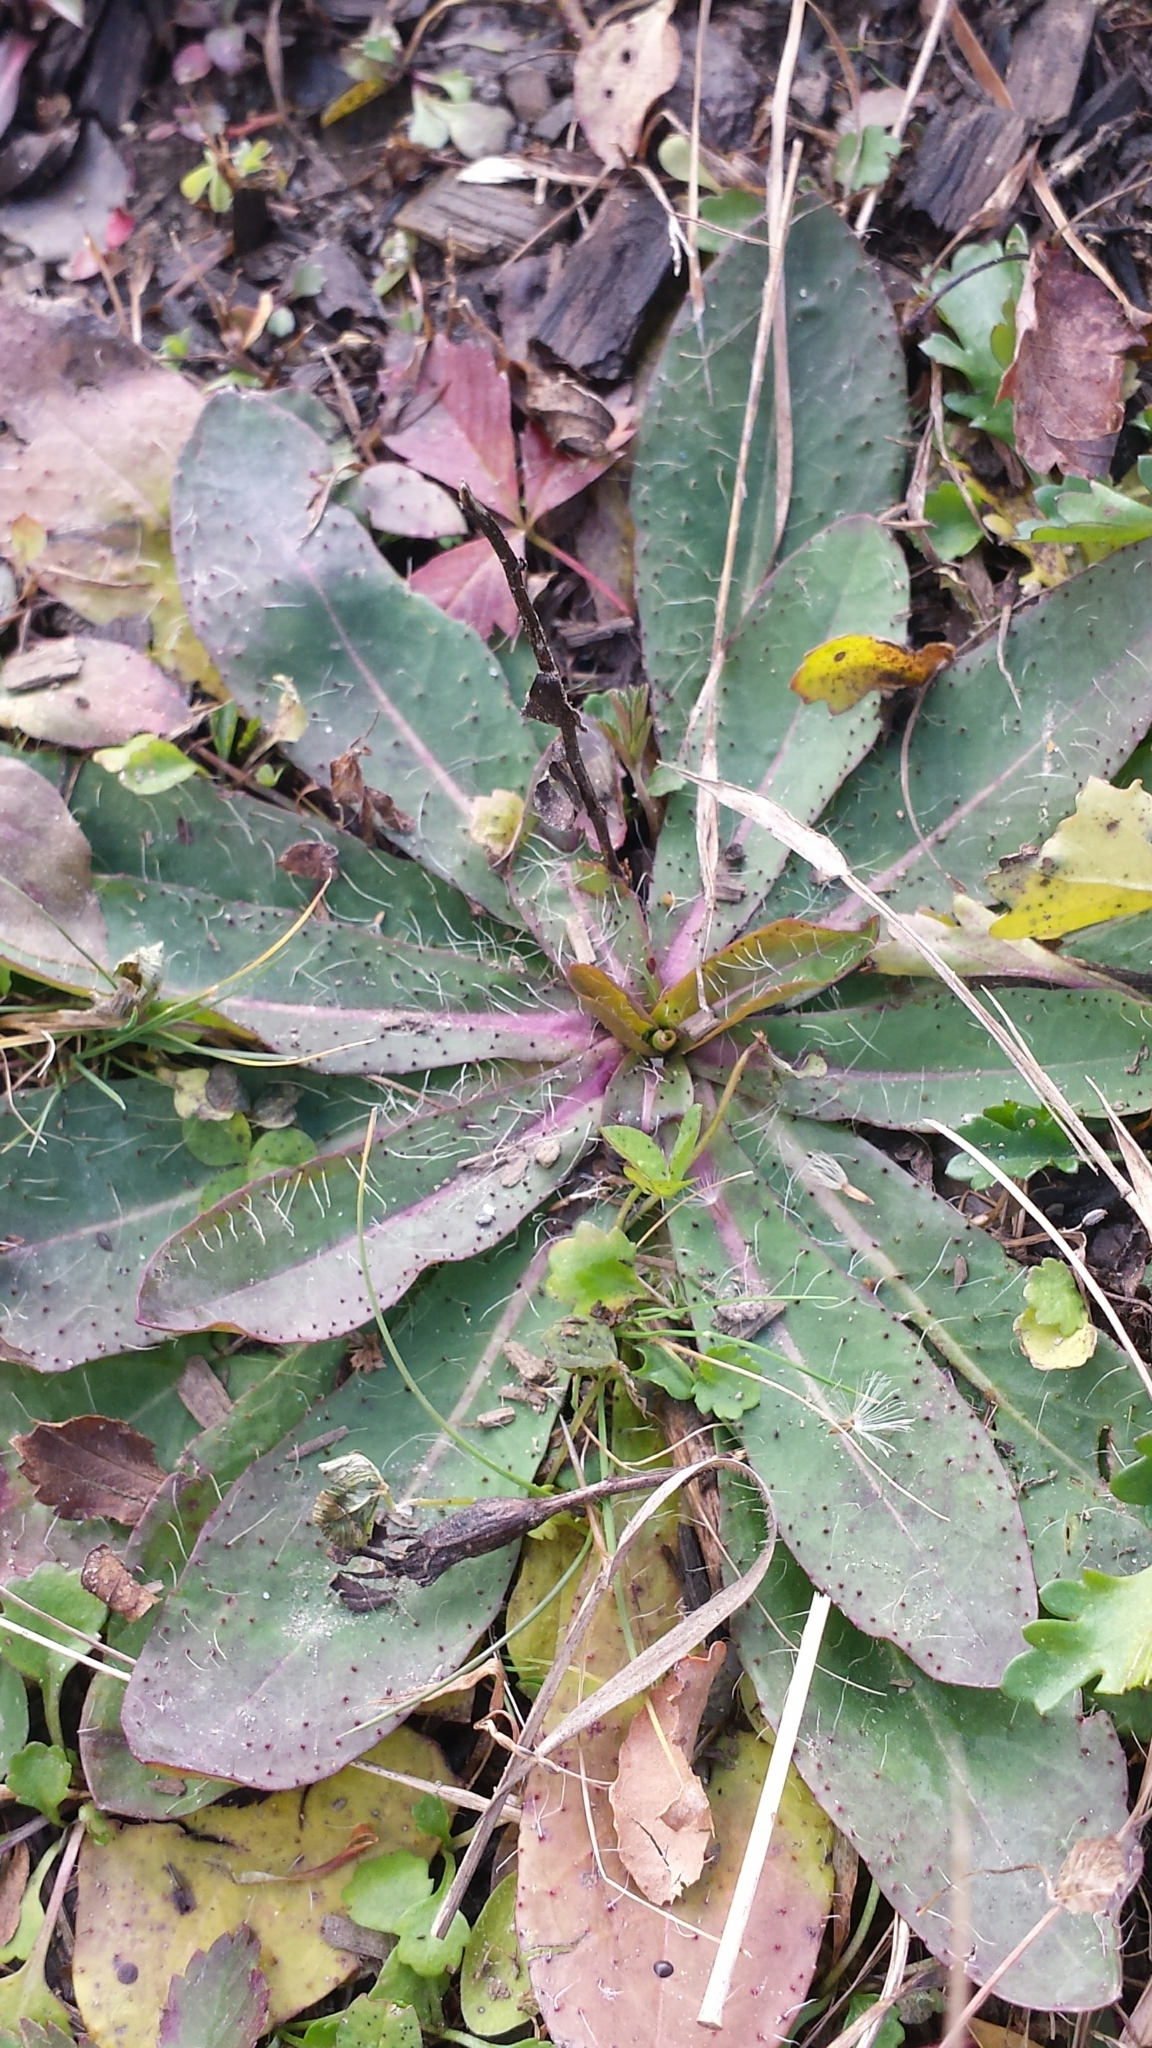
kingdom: Plantae
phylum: Tracheophyta
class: Magnoliopsida
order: Asterales
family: Asteraceae
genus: Pilosella
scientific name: Pilosella officinarum
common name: Mouse-ear hawkweed
